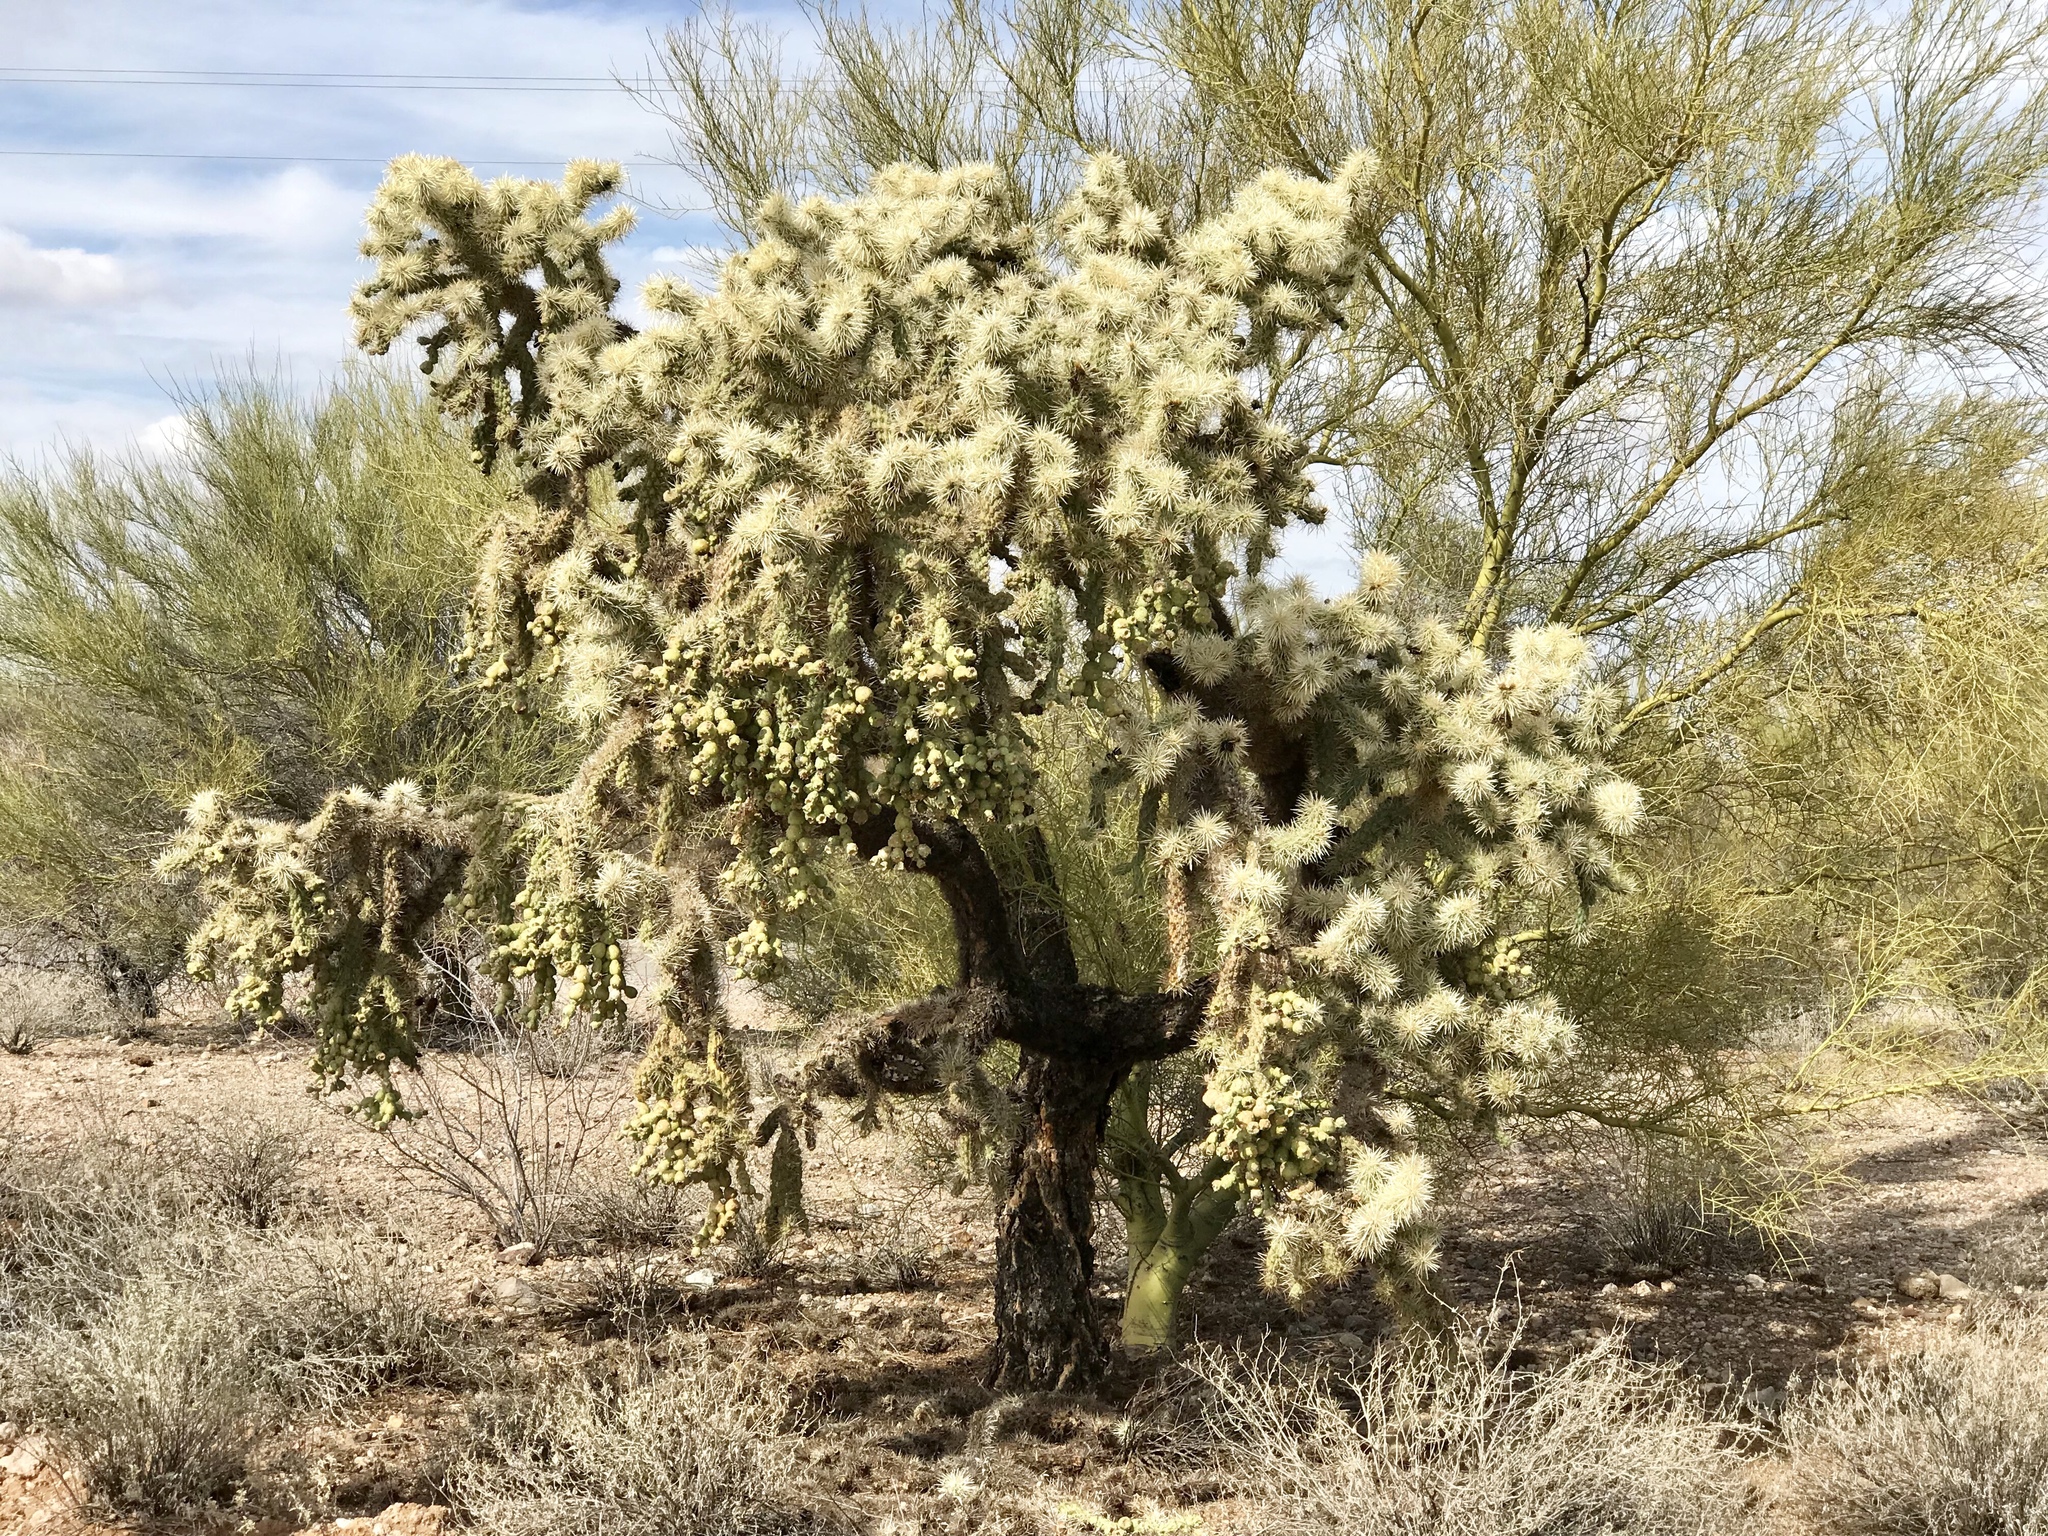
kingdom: Plantae
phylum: Tracheophyta
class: Magnoliopsida
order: Caryophyllales
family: Cactaceae
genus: Cylindropuntia
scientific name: Cylindropuntia fulgida
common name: Jumping cholla
